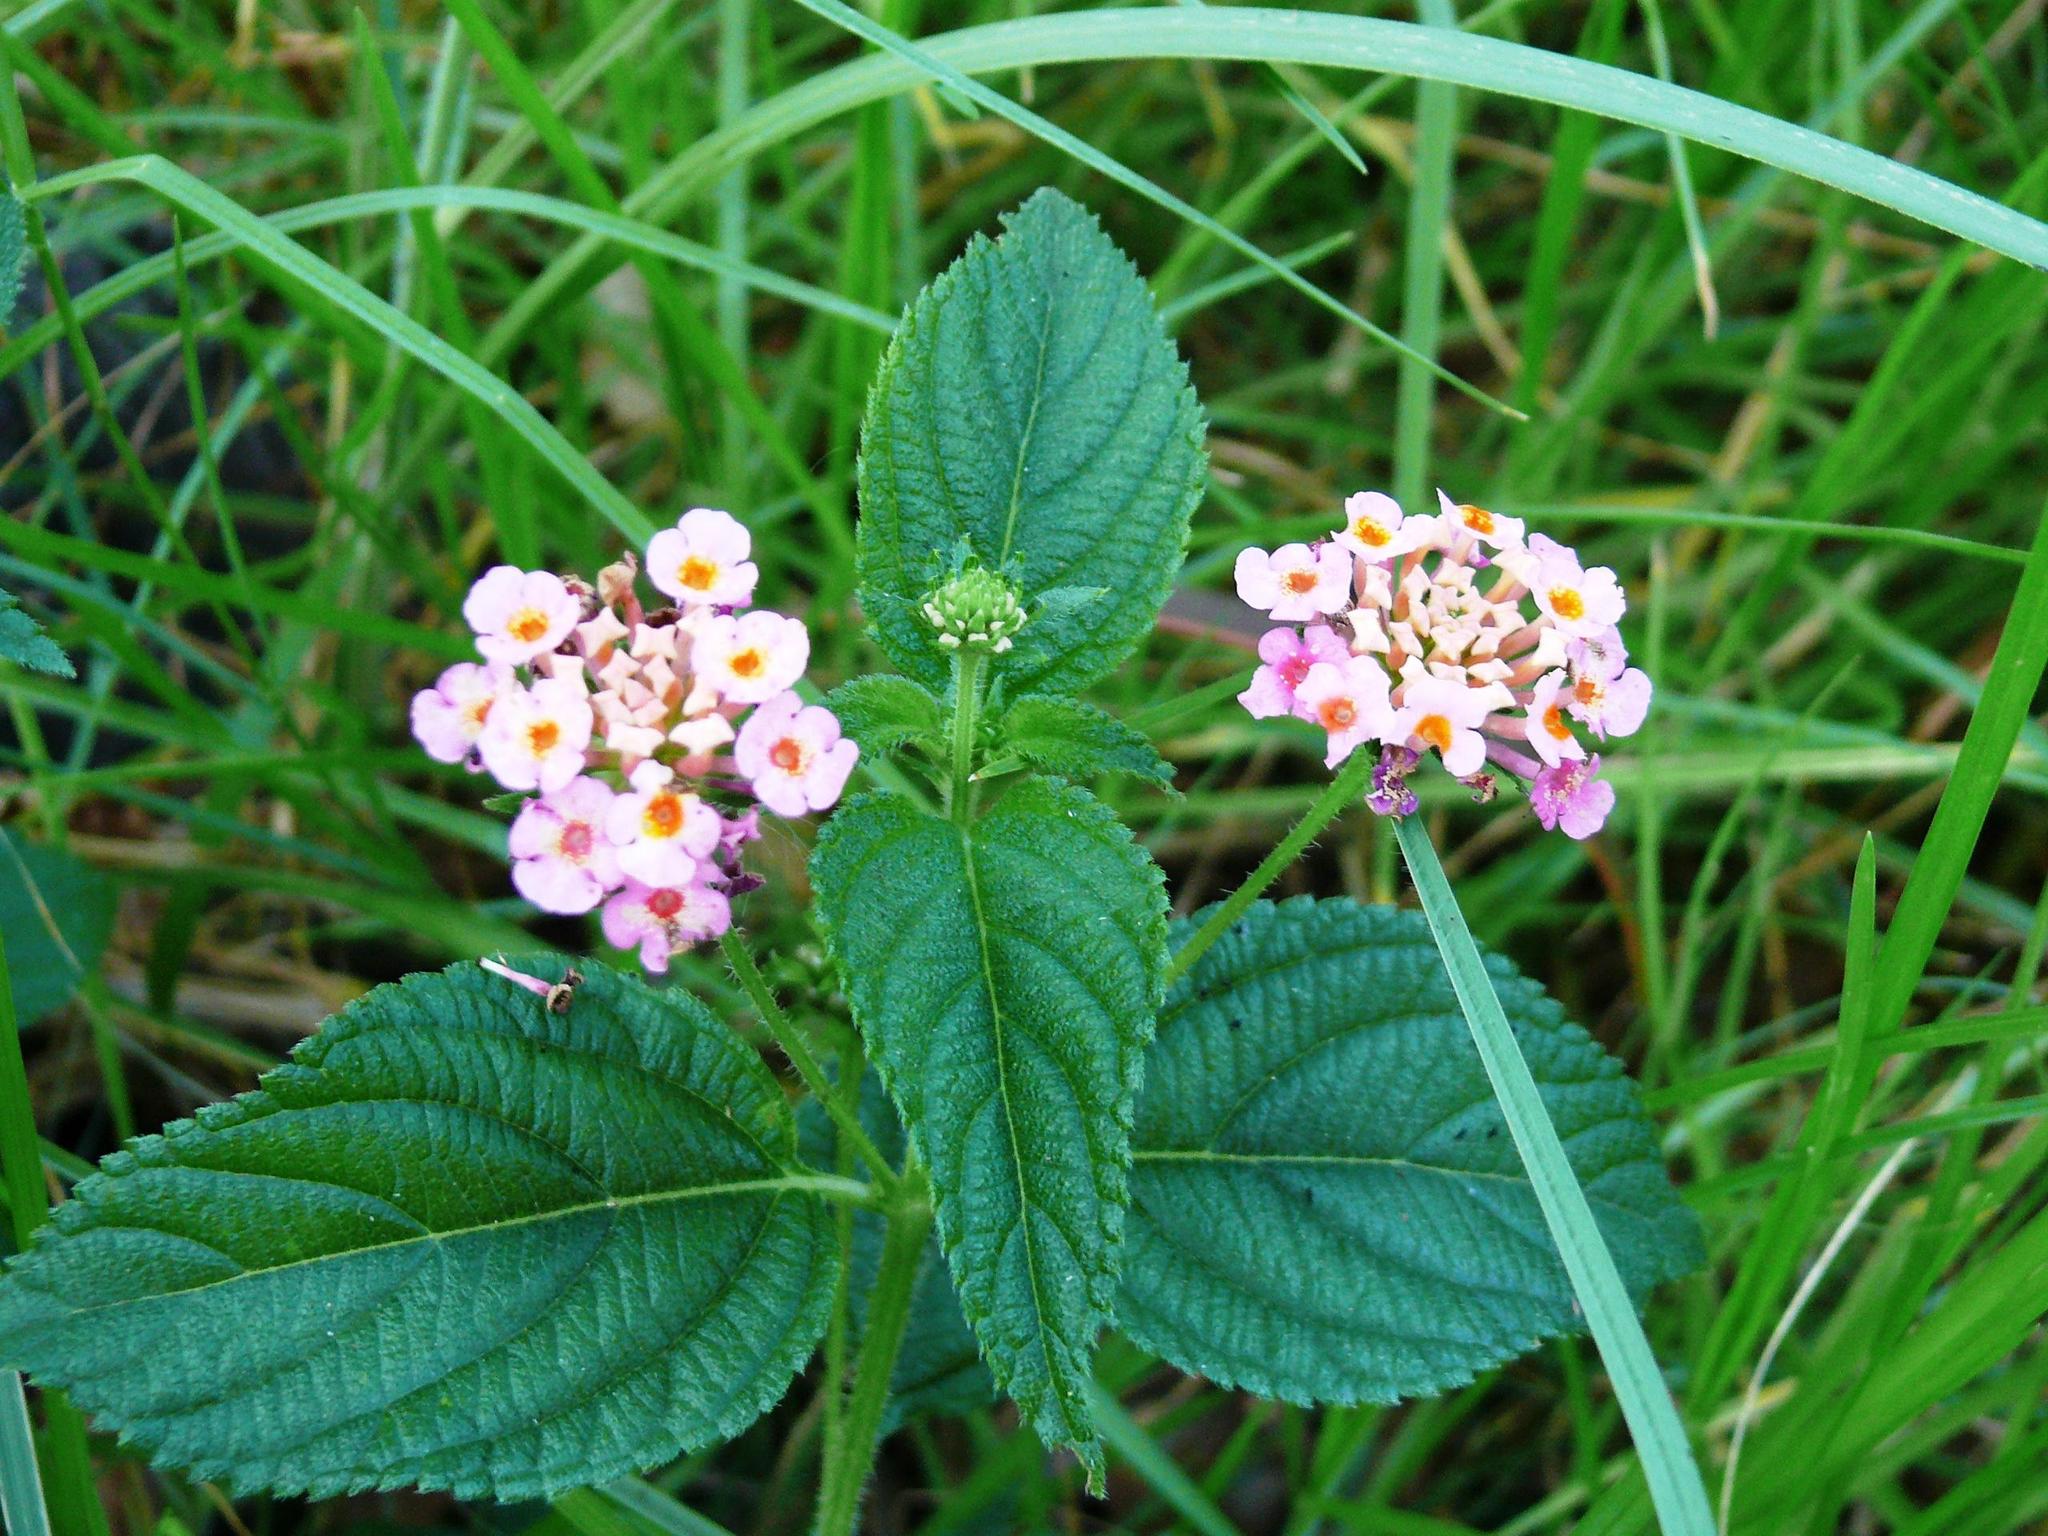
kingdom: Plantae
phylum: Tracheophyta
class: Magnoliopsida
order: Lamiales
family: Verbenaceae
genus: Lantana
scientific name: Lantana camara
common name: Lantana
